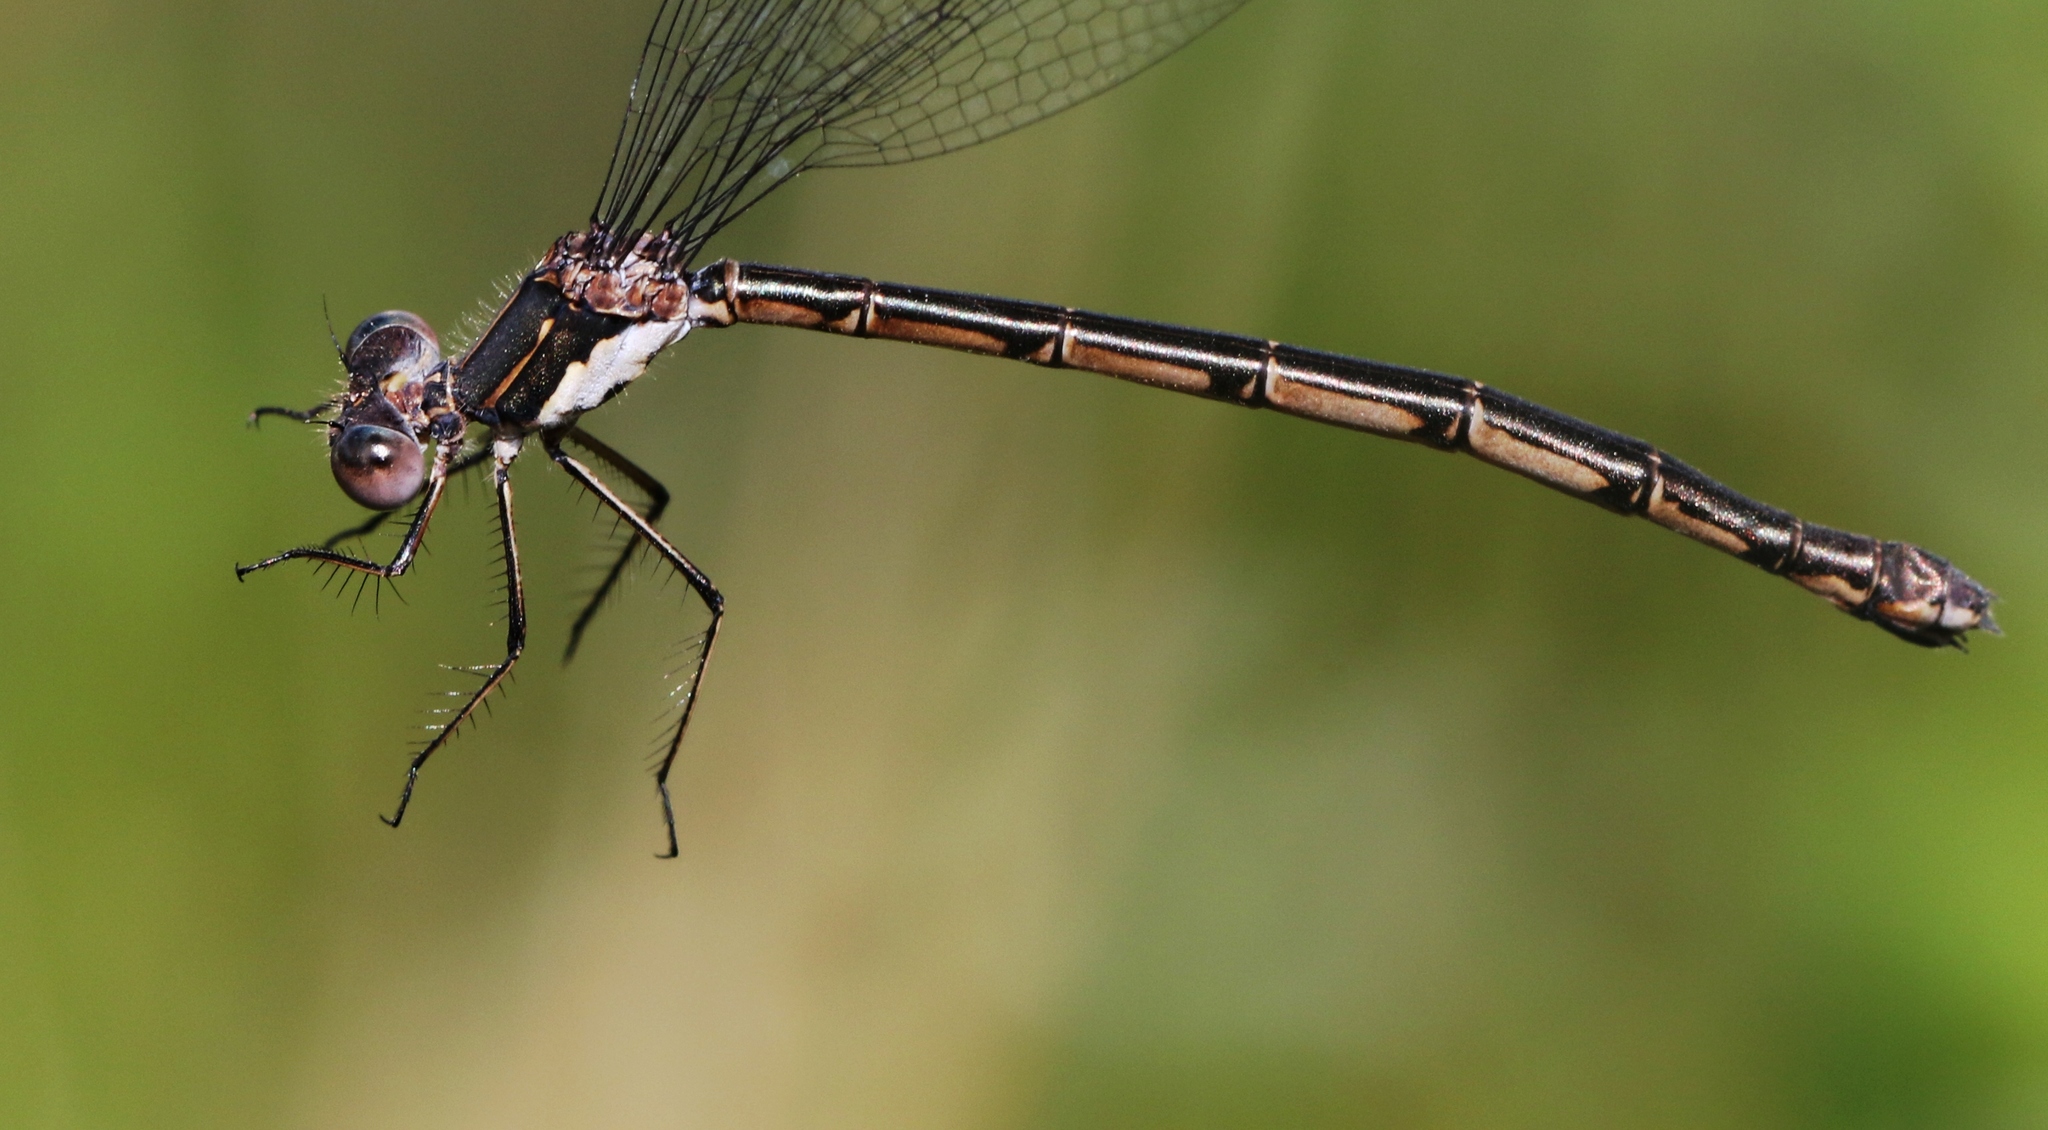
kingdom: Animalia
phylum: Arthropoda
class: Insecta
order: Odonata
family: Lestidae
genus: Lestes
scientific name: Lestes congener
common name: Spotted spreadwing
